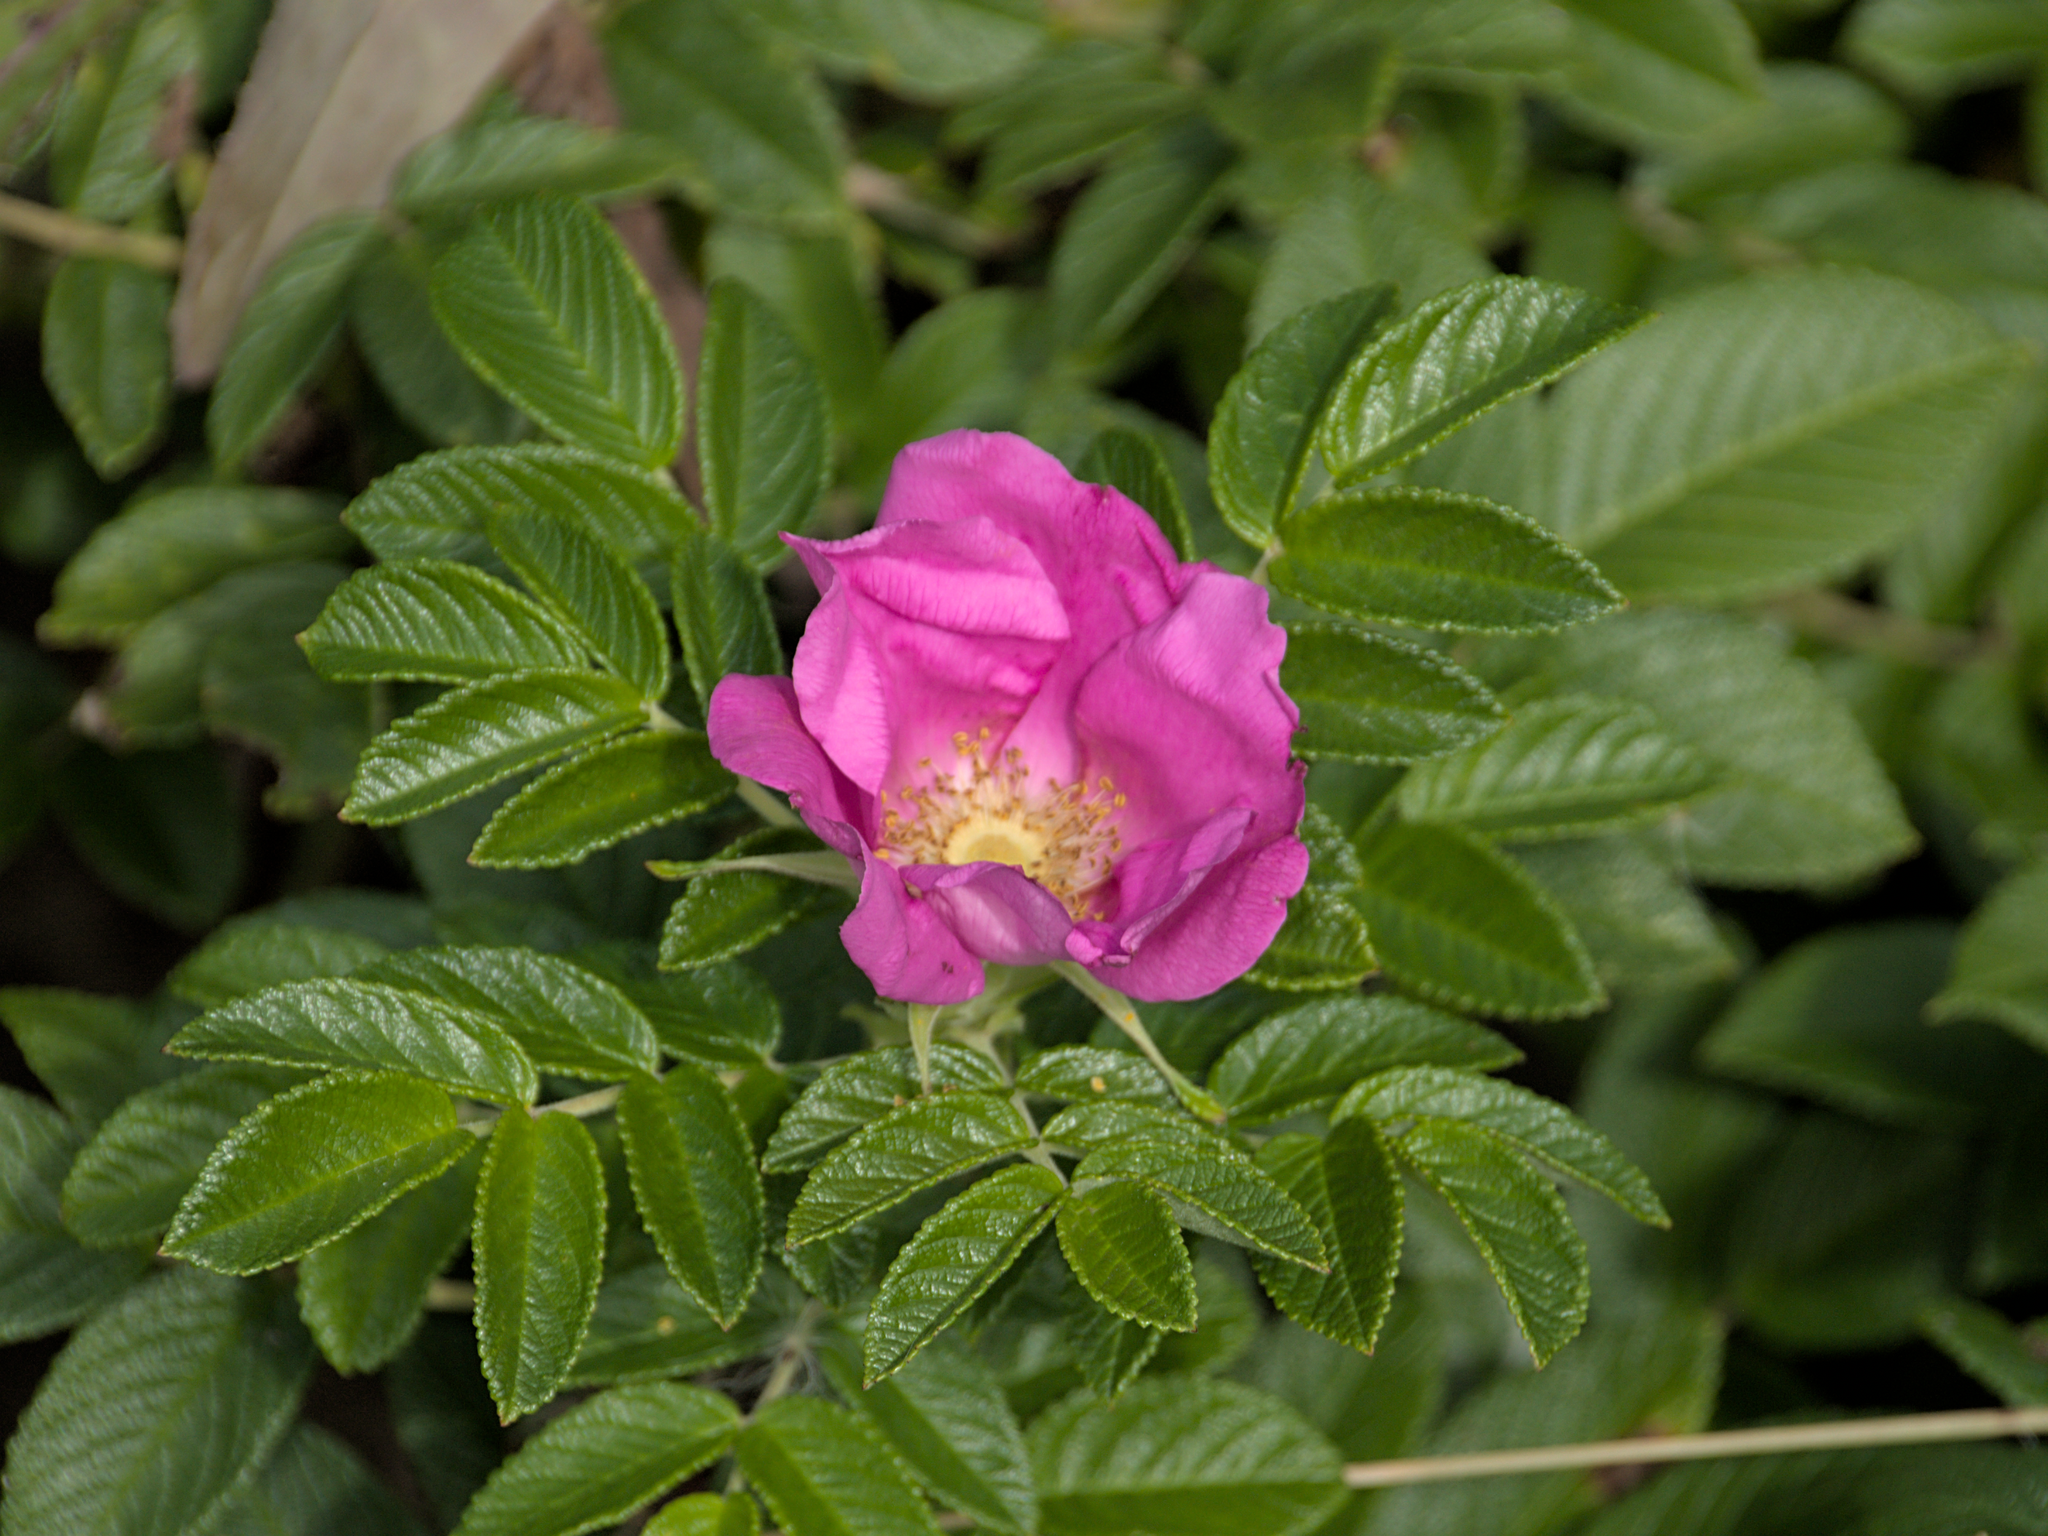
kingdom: Plantae
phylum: Tracheophyta
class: Magnoliopsida
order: Rosales
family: Rosaceae
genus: Rosa
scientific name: Rosa rugosa
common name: Japanese rose
